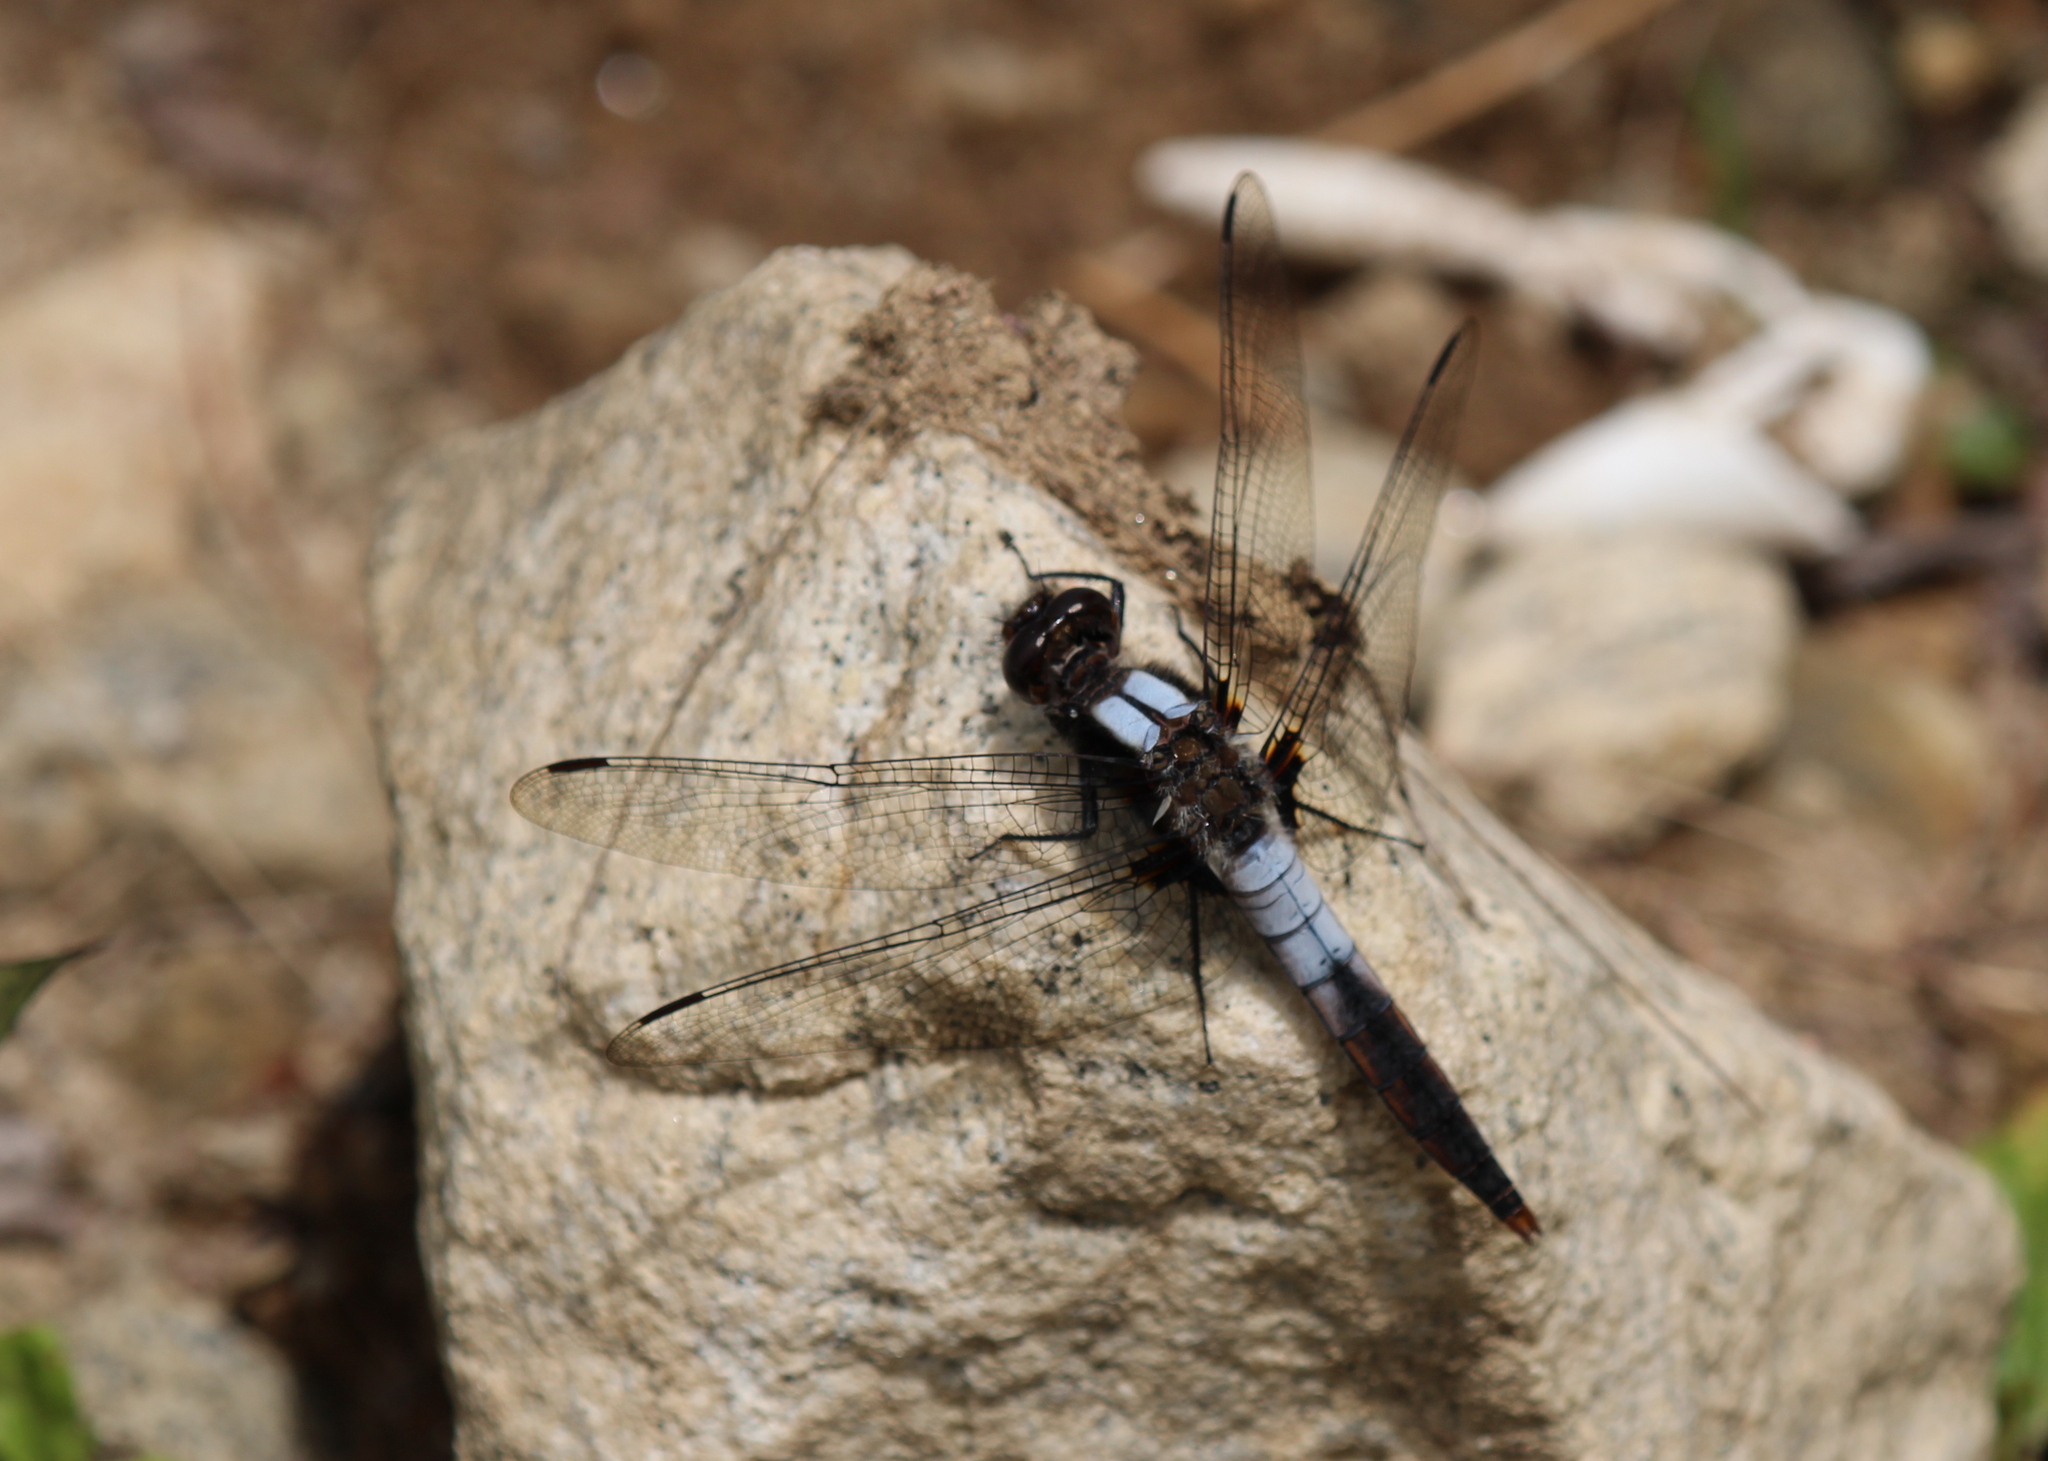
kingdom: Animalia
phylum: Arthropoda
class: Insecta
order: Odonata
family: Libellulidae
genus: Ladona
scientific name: Ladona julia
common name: Chalk-fronted corporal
